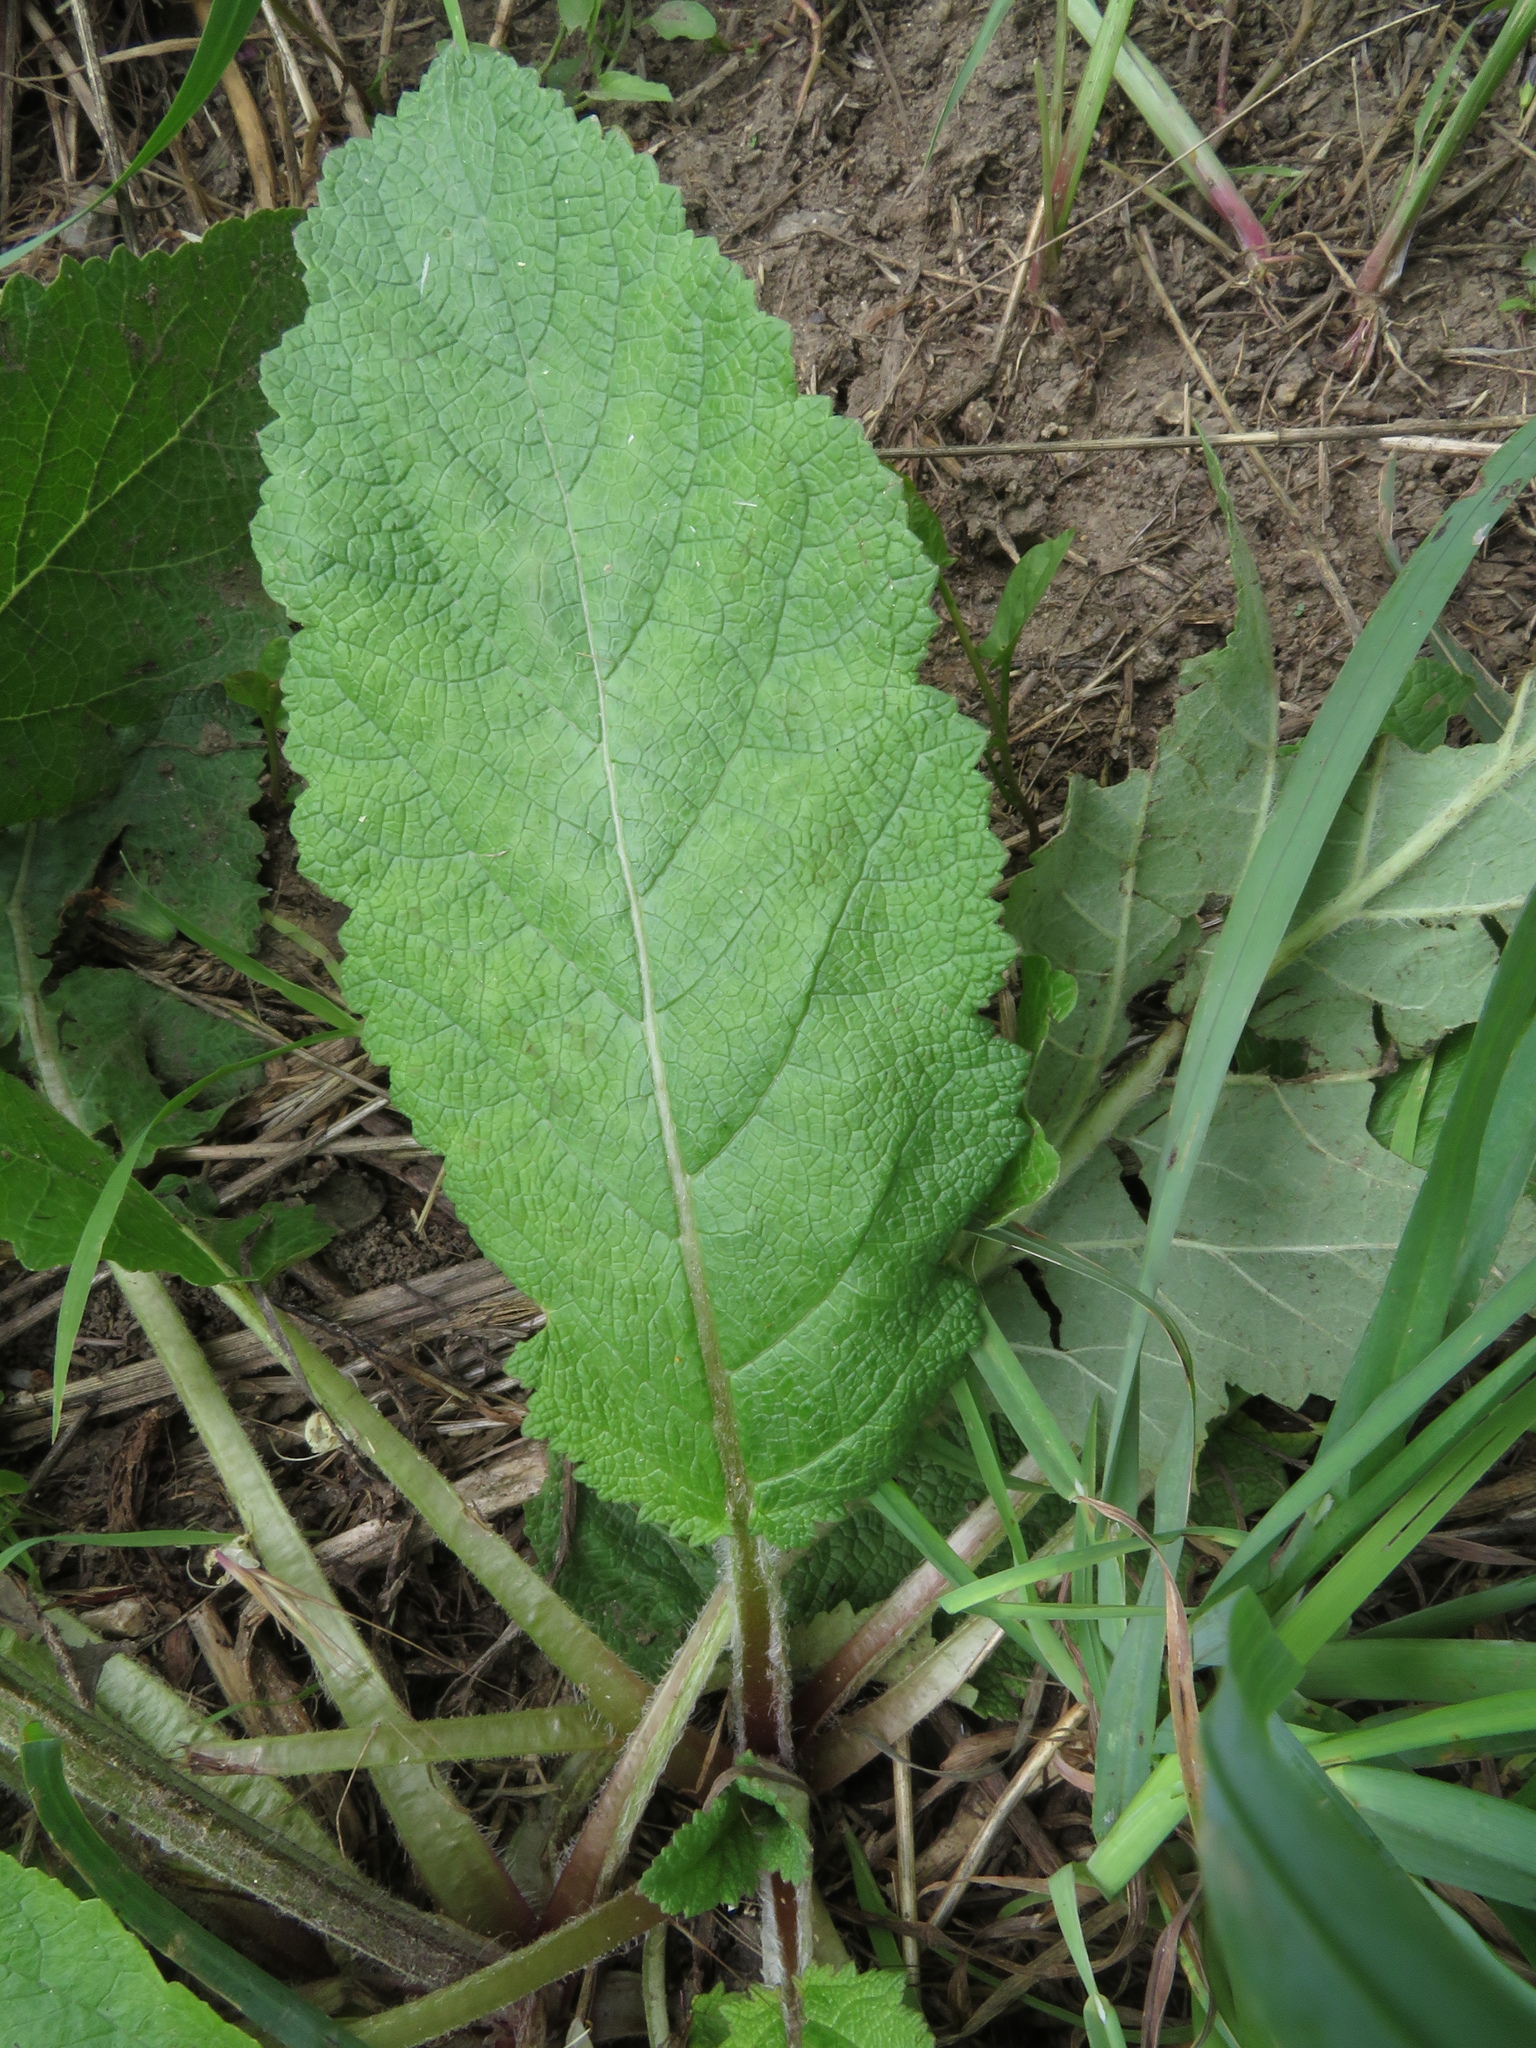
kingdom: Plantae
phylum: Tracheophyta
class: Magnoliopsida
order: Lamiales
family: Lamiaceae
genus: Salvia
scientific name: Salvia austriaca
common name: Austrian sage
